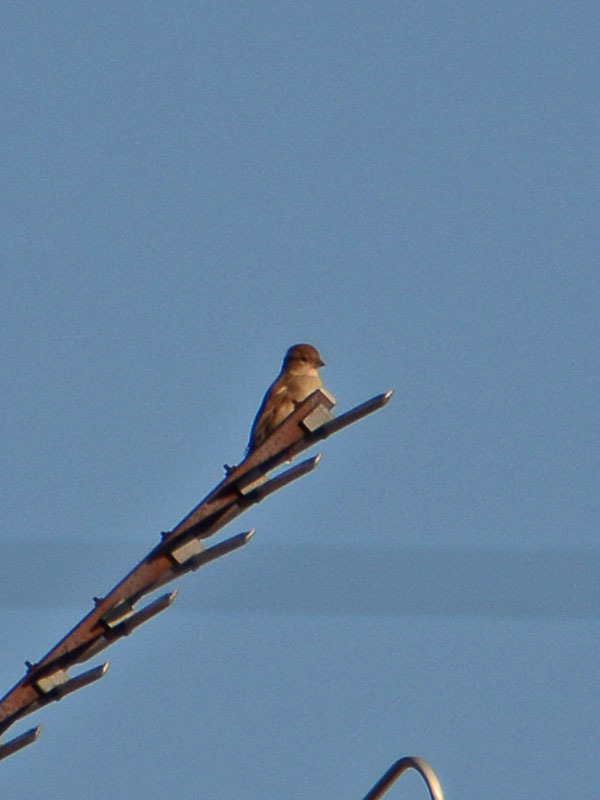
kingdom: Animalia
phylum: Chordata
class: Aves
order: Passeriformes
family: Passeridae
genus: Passer
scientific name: Passer domesticus
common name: House sparrow
